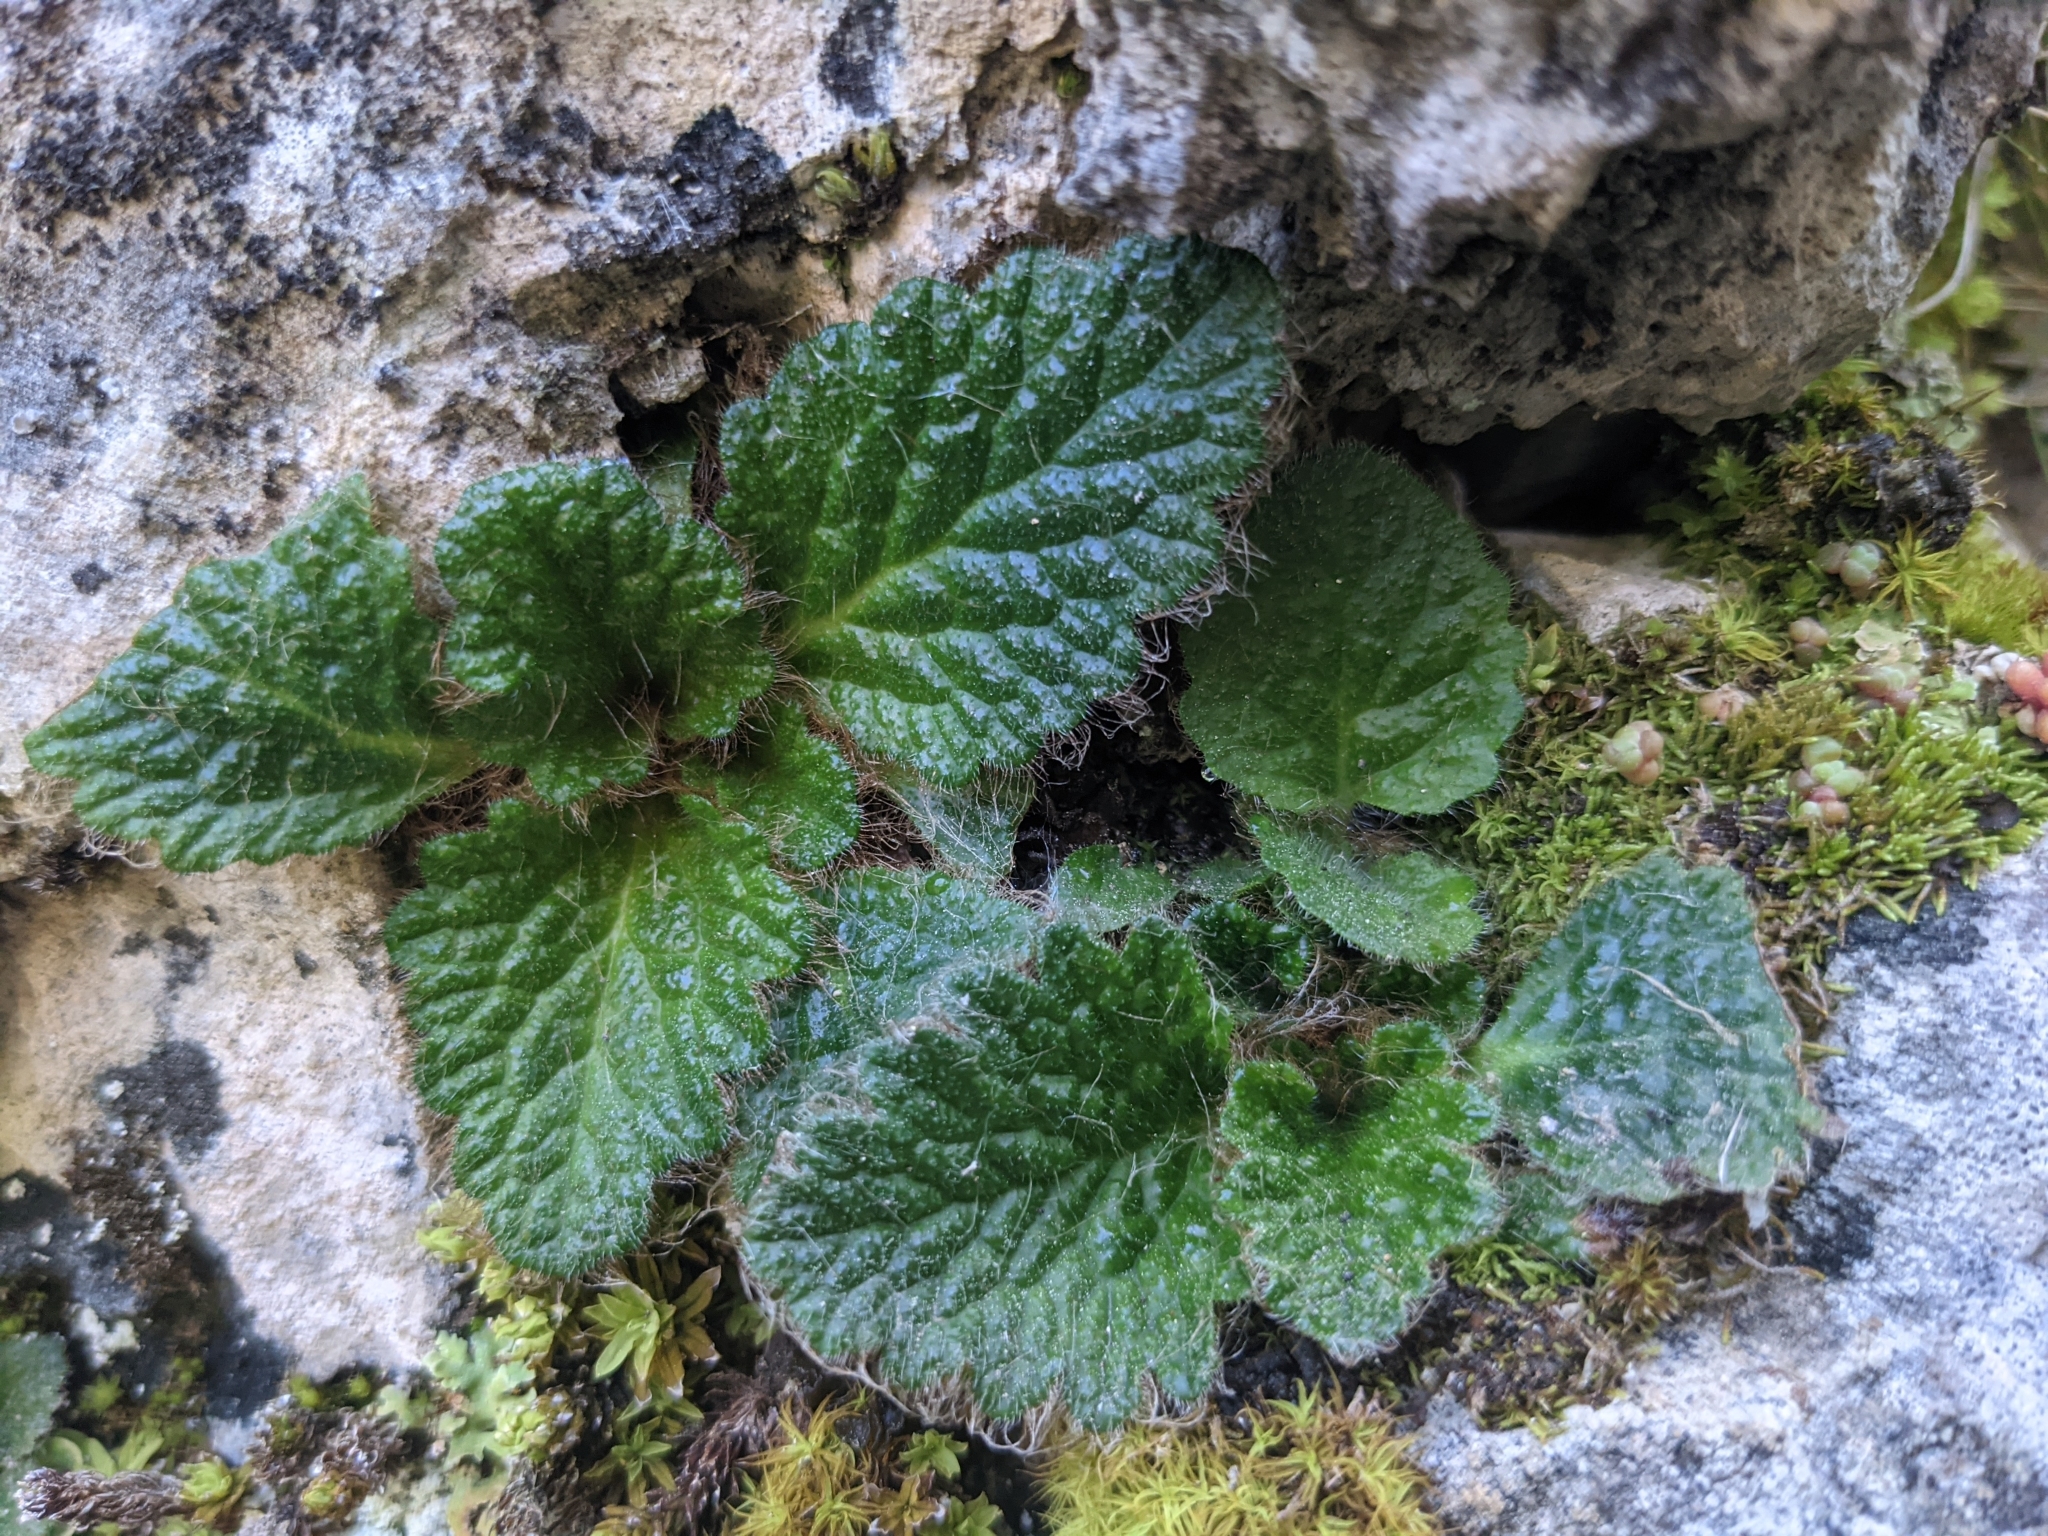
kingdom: Plantae
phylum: Tracheophyta
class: Magnoliopsida
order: Lamiales
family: Gesneriaceae
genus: Ramonda
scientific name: Ramonda myconi
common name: Pyrenean-violet
